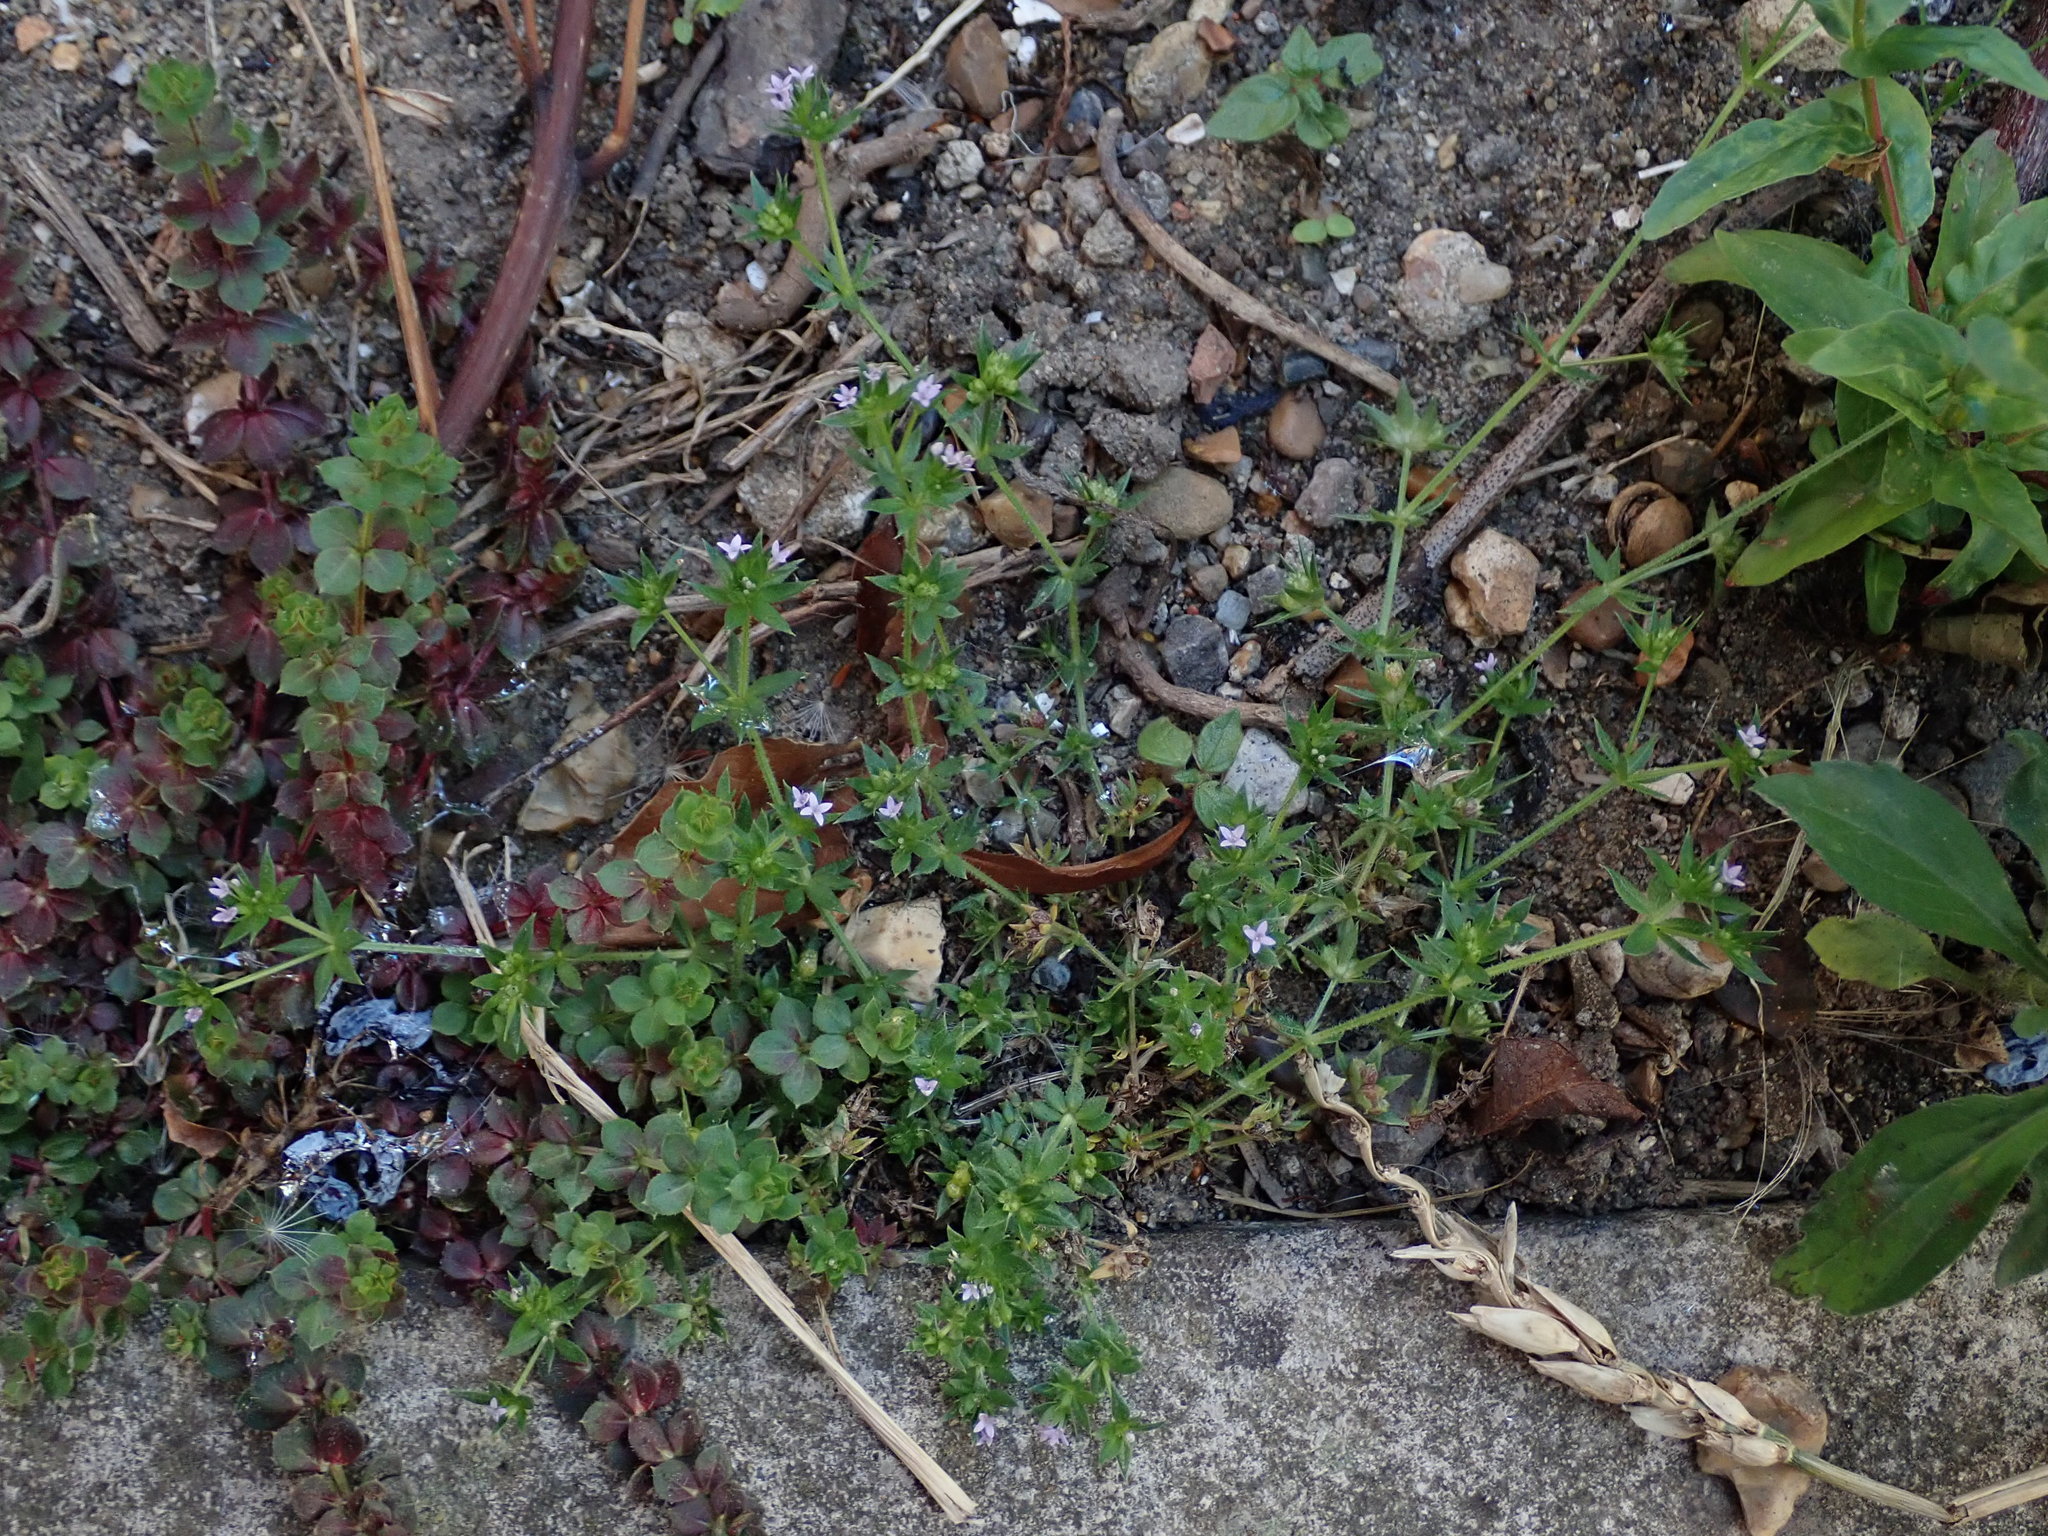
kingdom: Plantae
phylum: Tracheophyta
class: Magnoliopsida
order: Gentianales
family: Rubiaceae
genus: Sherardia
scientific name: Sherardia arvensis
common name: Field madder
